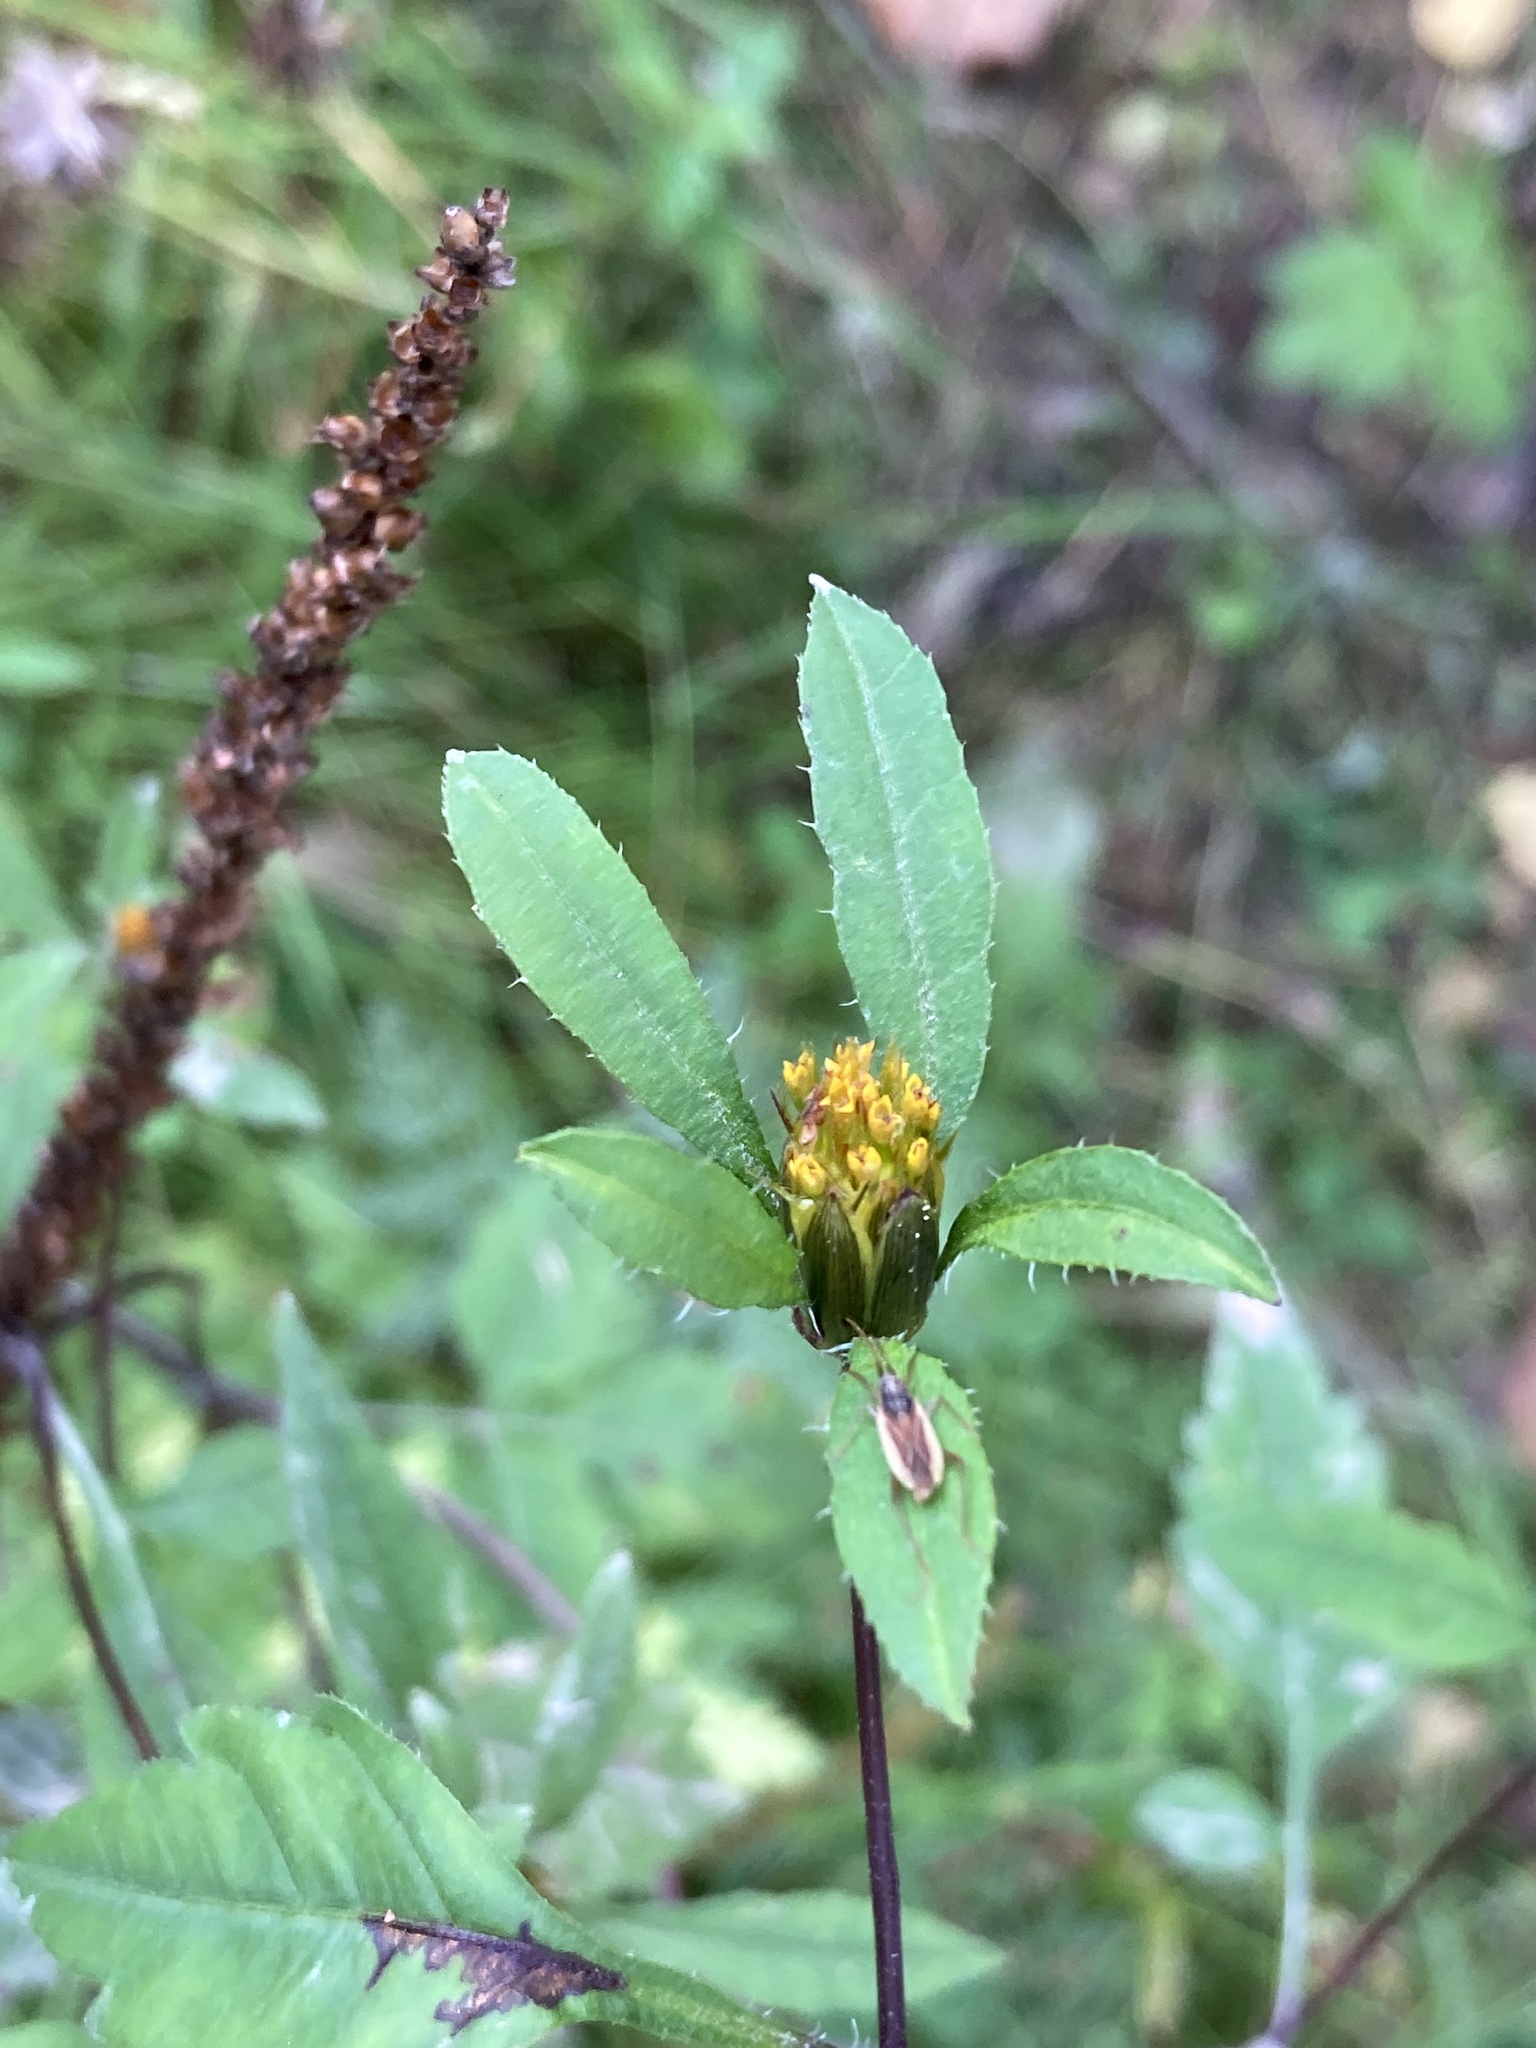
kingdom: Plantae
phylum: Tracheophyta
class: Magnoliopsida
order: Asterales
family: Asteraceae
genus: Bidens
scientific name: Bidens frondosa
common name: Beggarticks
